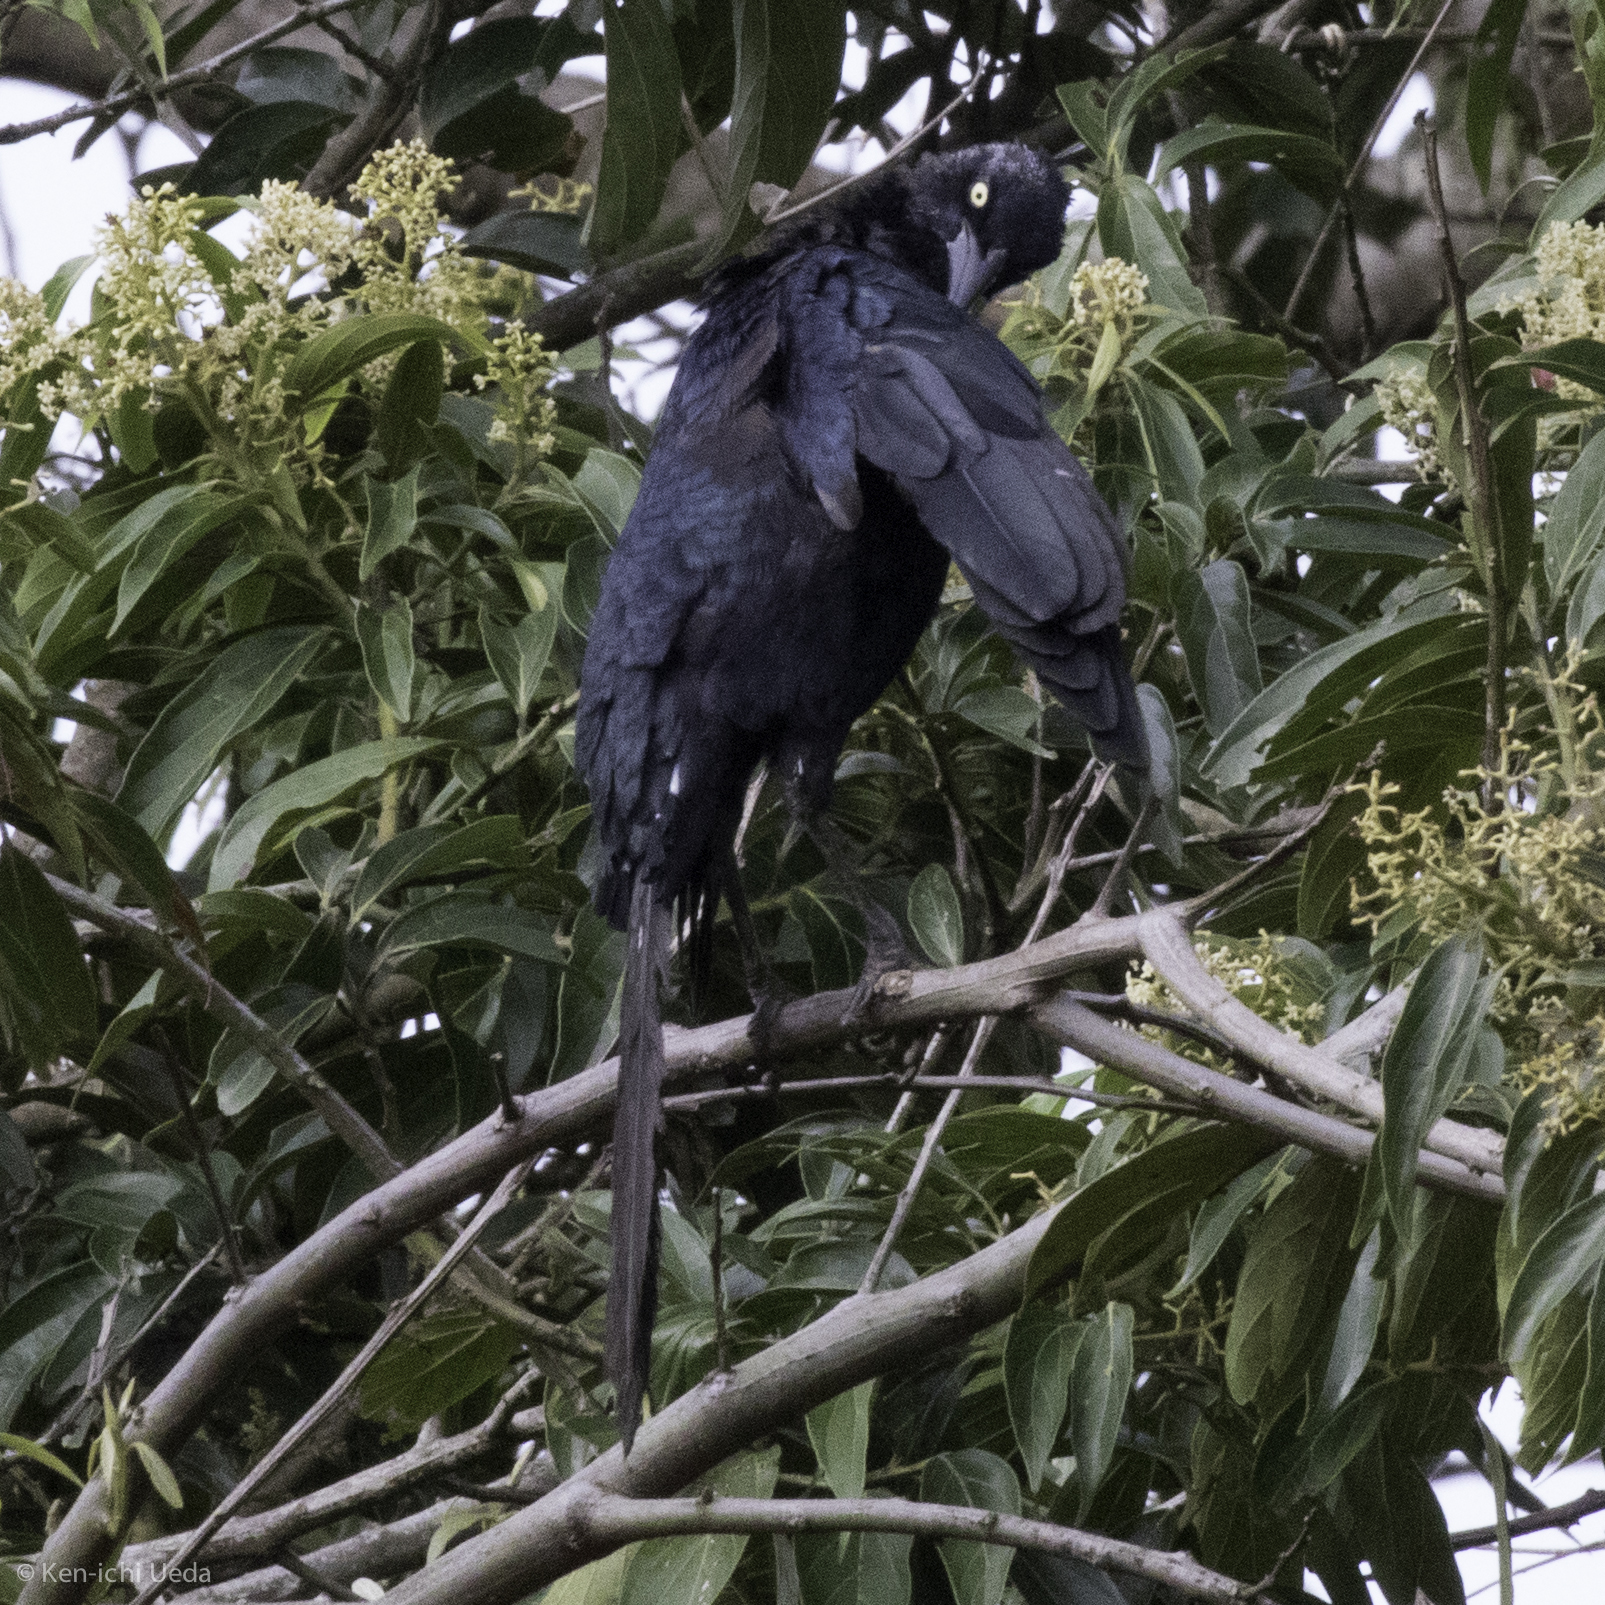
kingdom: Animalia
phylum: Chordata
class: Aves
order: Passeriformes
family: Icteridae
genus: Quiscalus
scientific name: Quiscalus mexicanus
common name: Great-tailed grackle
